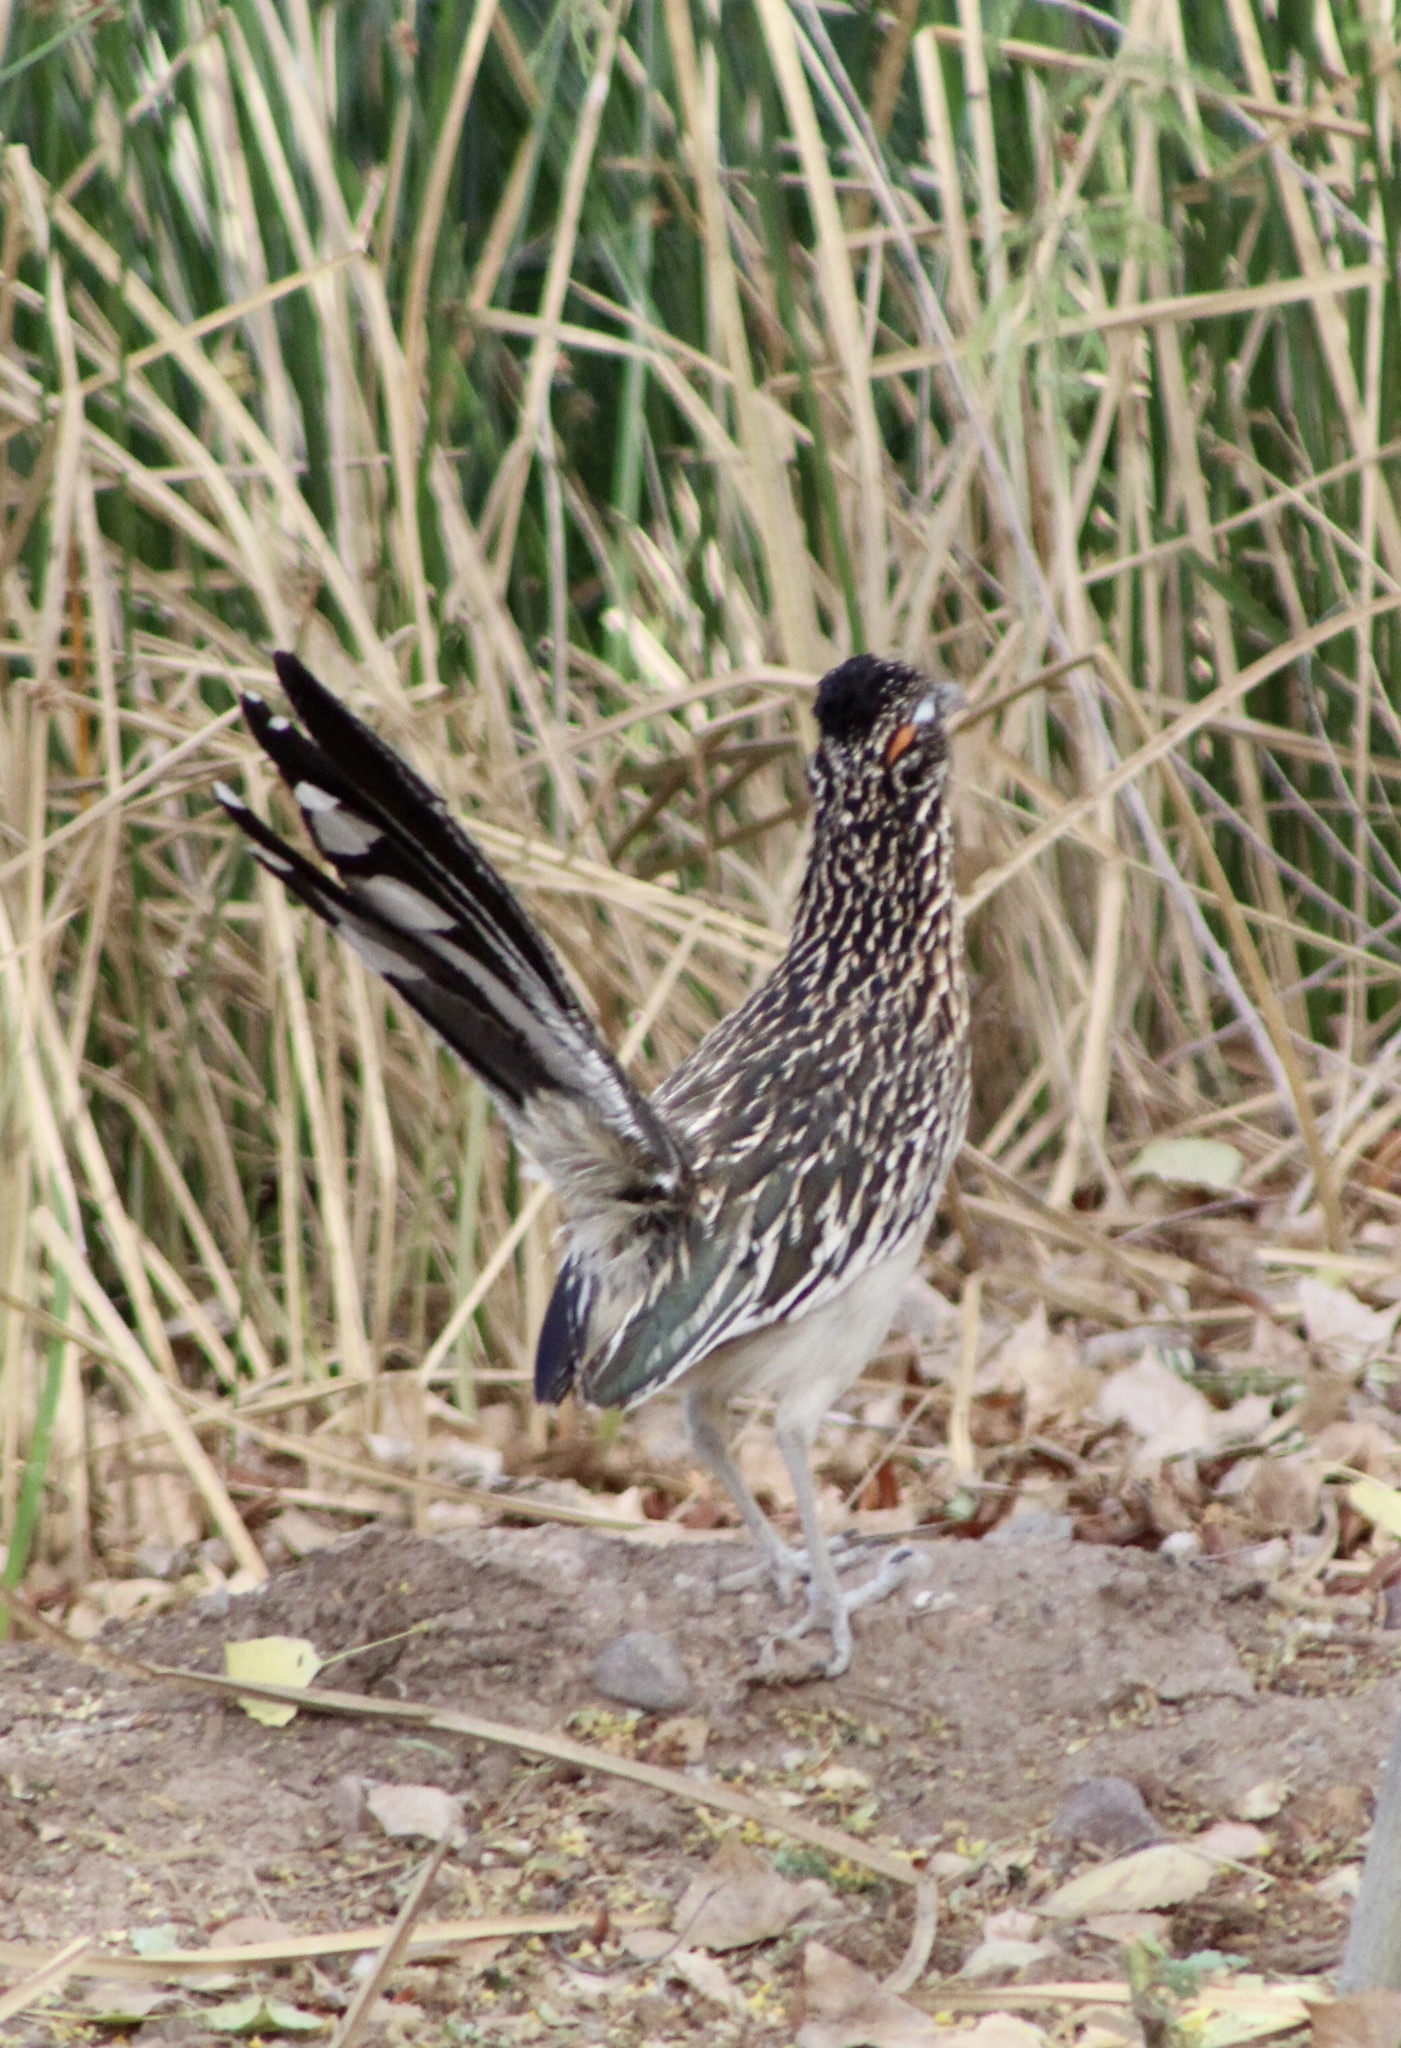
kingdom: Animalia
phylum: Chordata
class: Aves
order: Cuculiformes
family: Cuculidae
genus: Geococcyx
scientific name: Geococcyx californianus
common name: Greater roadrunner
